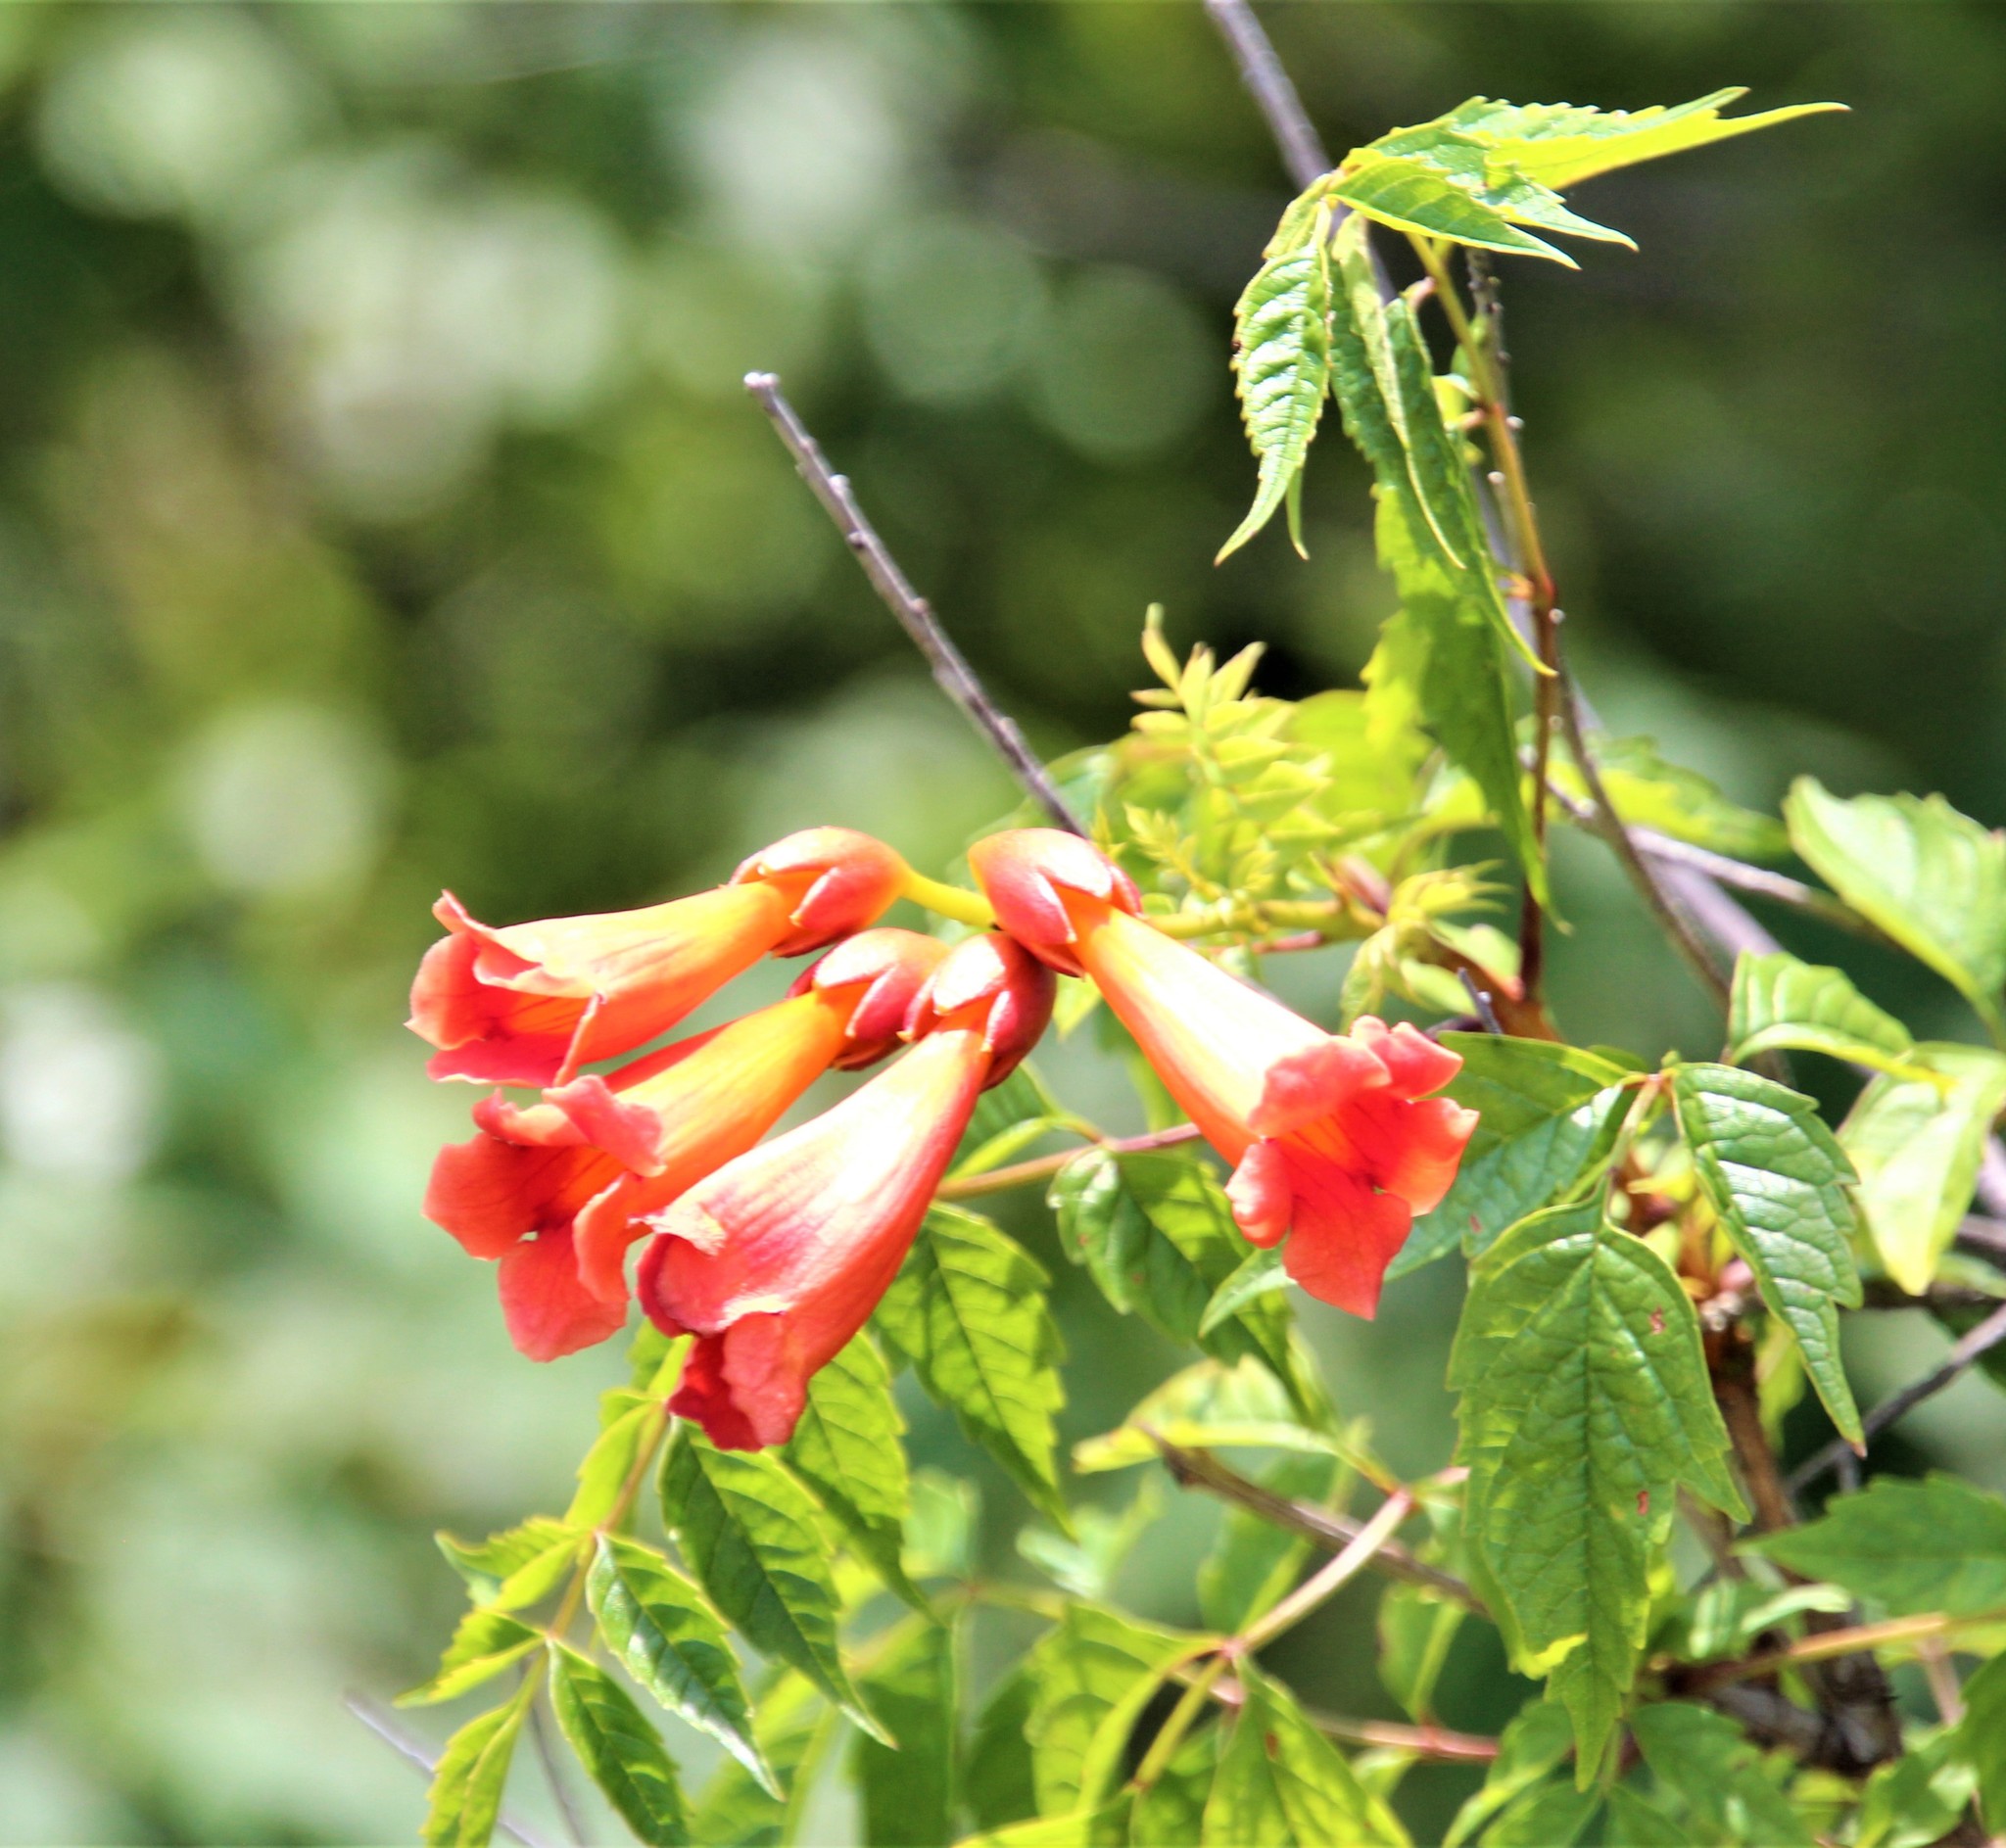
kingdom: Plantae
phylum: Tracheophyta
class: Magnoliopsida
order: Lamiales
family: Bignoniaceae
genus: Campsis
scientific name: Campsis radicans
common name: Trumpet-creeper
